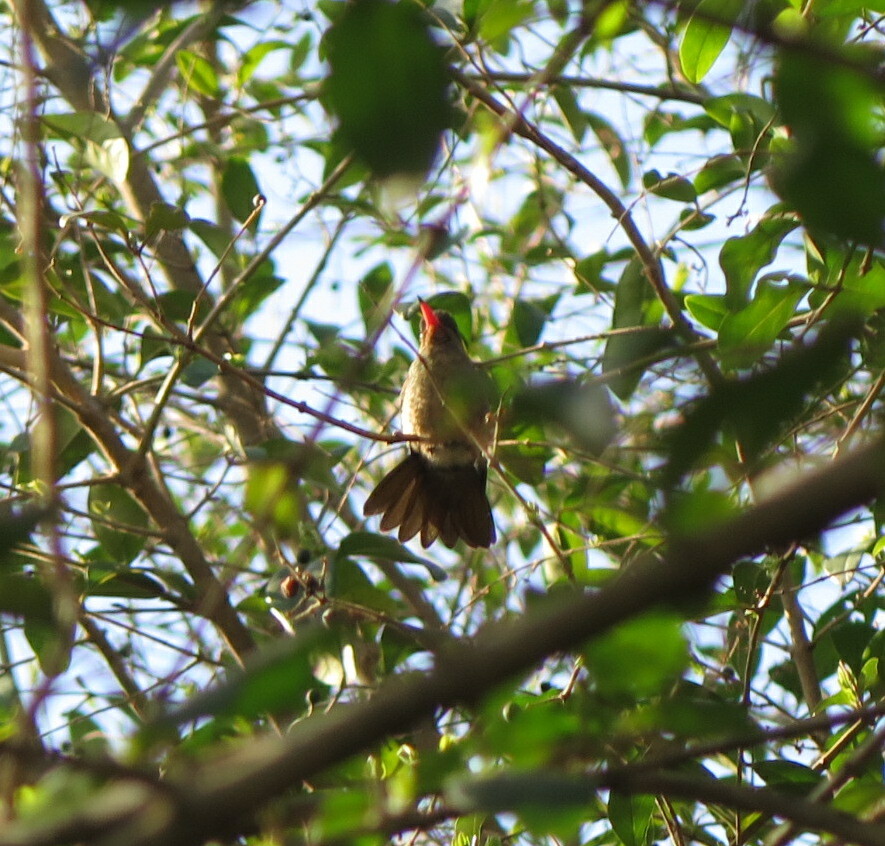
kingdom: Animalia
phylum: Chordata
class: Aves
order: Apodiformes
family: Trochilidae
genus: Chlorostilbon
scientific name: Chlorostilbon lucidus
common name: Glittering-bellied emerald
